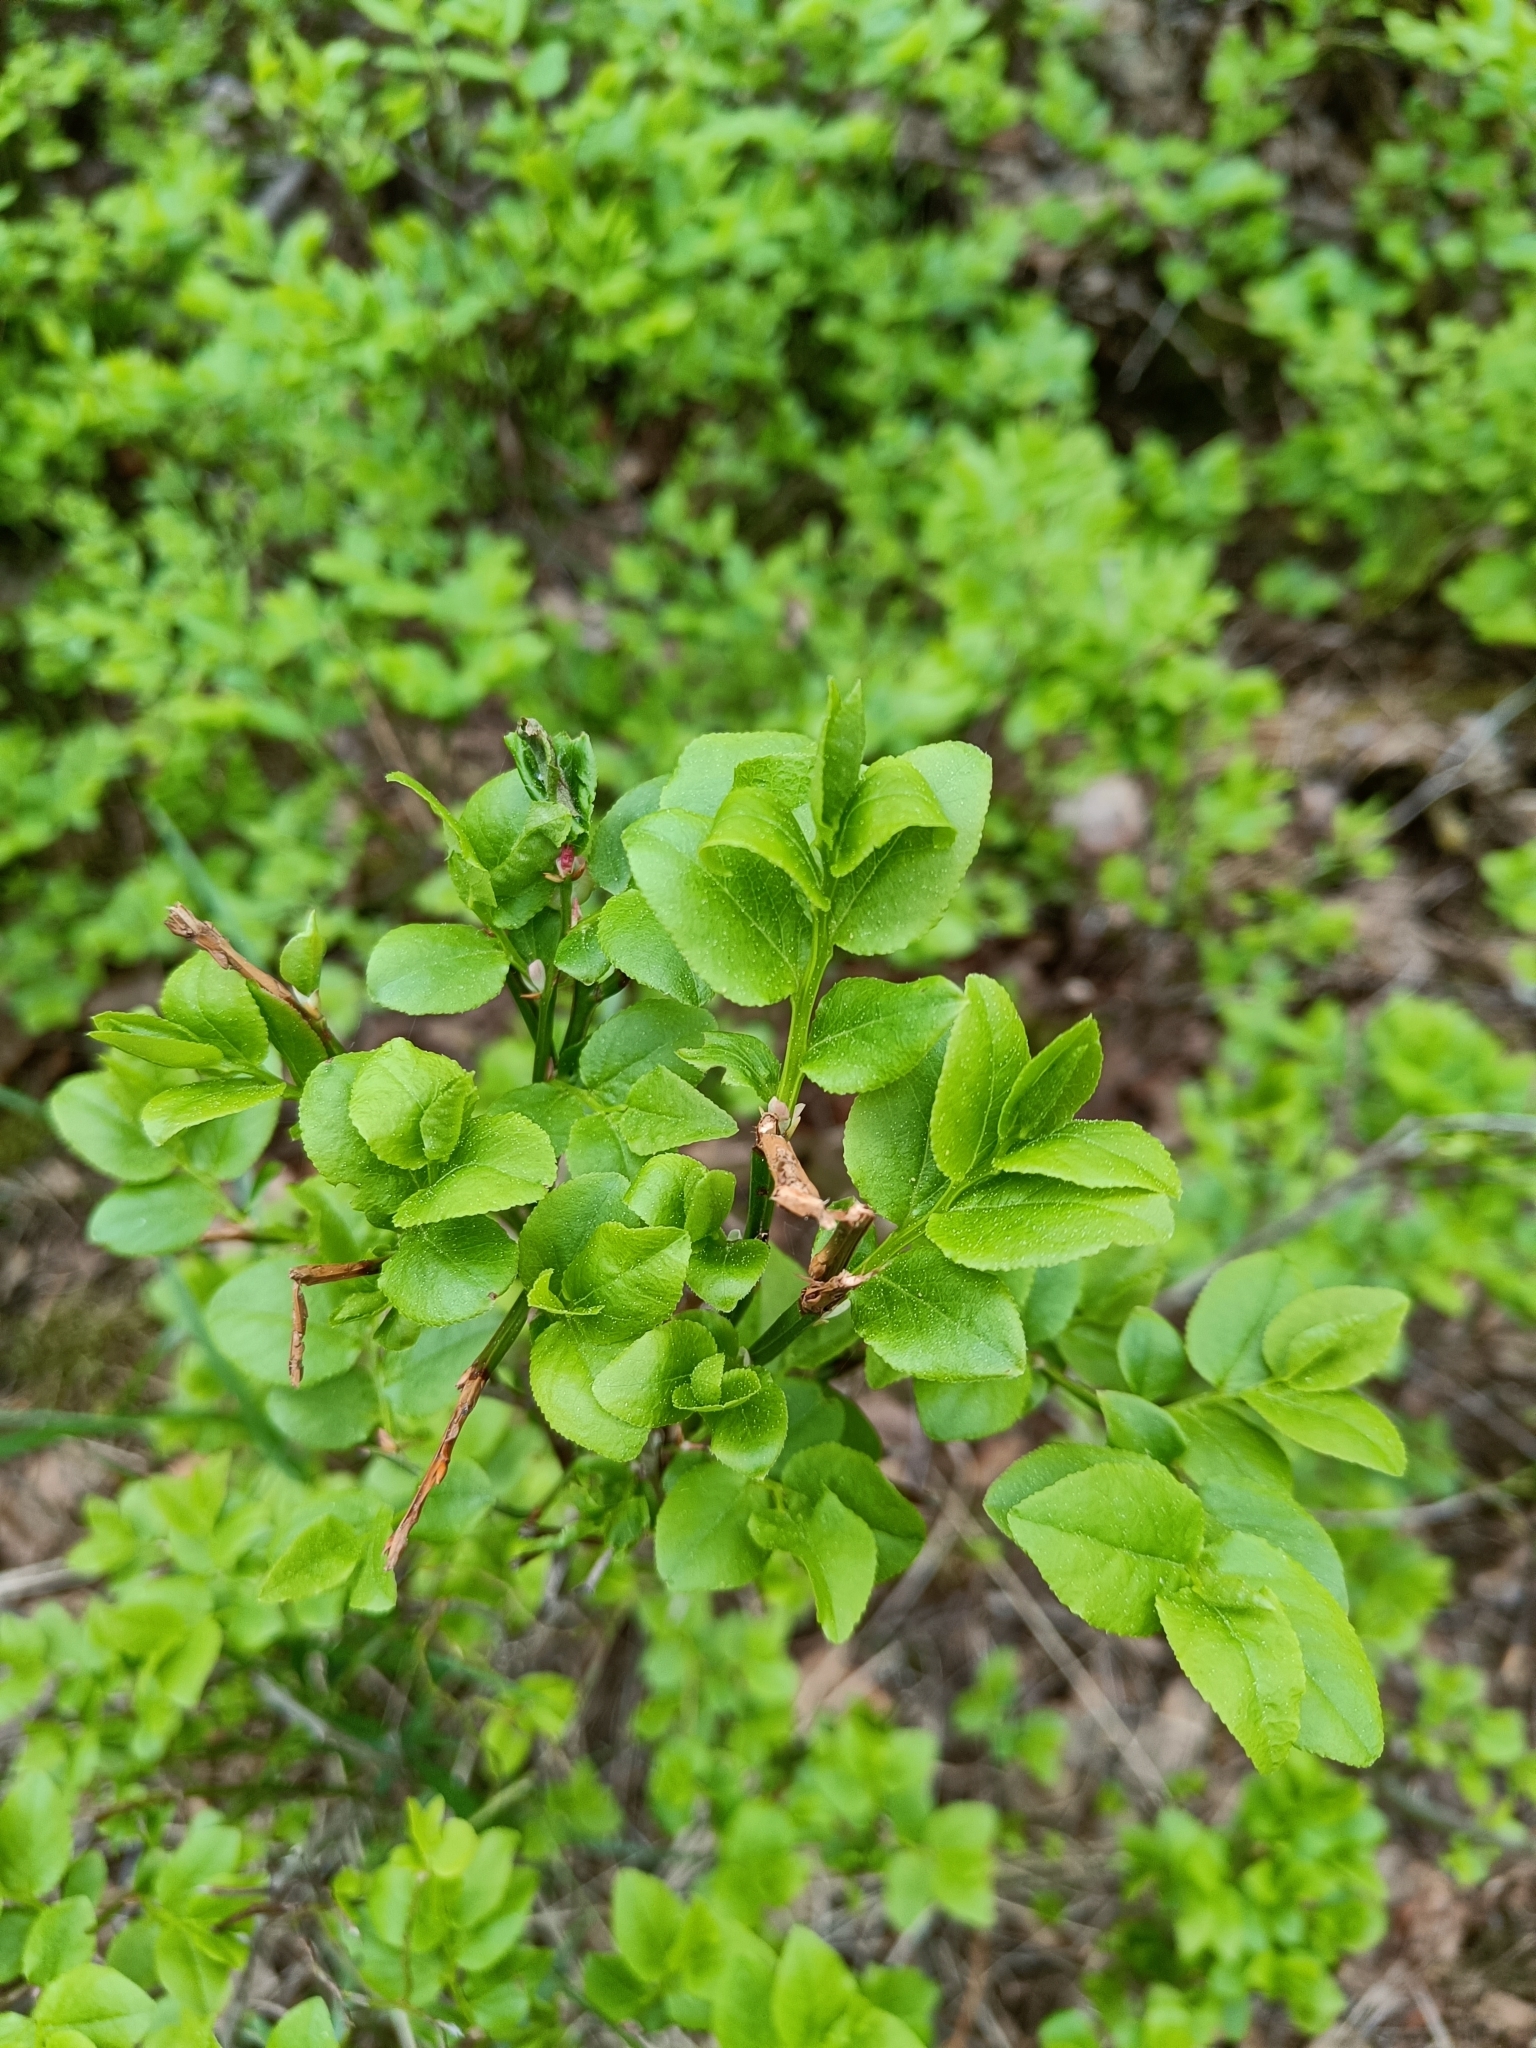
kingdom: Plantae
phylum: Tracheophyta
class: Magnoliopsida
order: Ericales
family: Ericaceae
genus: Vaccinium
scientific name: Vaccinium myrtillus
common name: Bilberry
